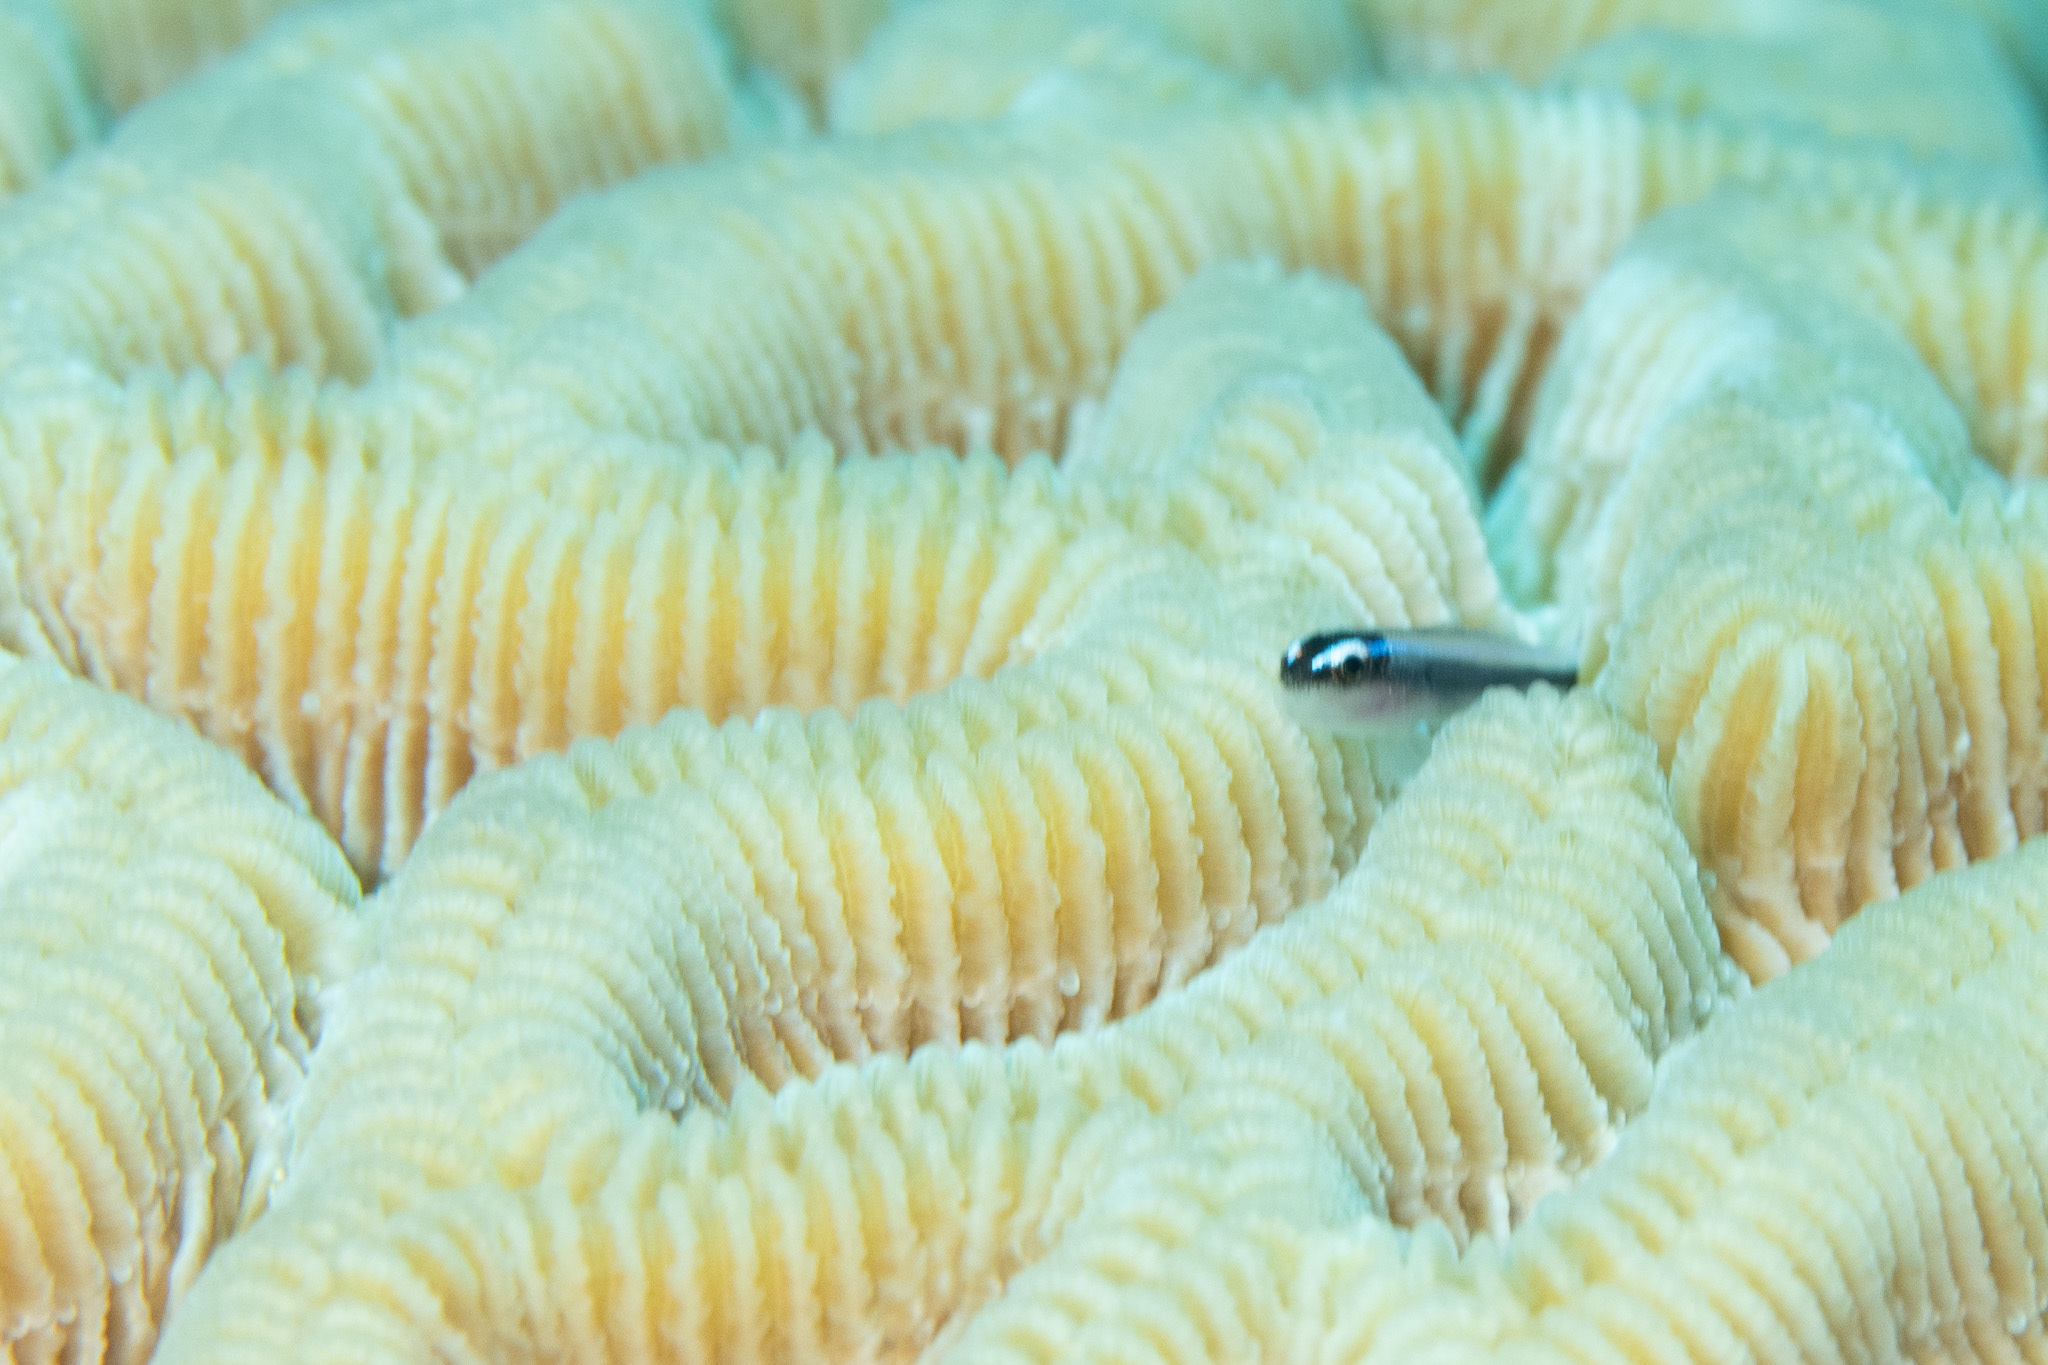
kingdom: Animalia
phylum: Chordata
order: Perciformes
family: Gobiidae
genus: Elacatinus
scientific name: Elacatinus lobeli
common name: Caribbean neon goby
